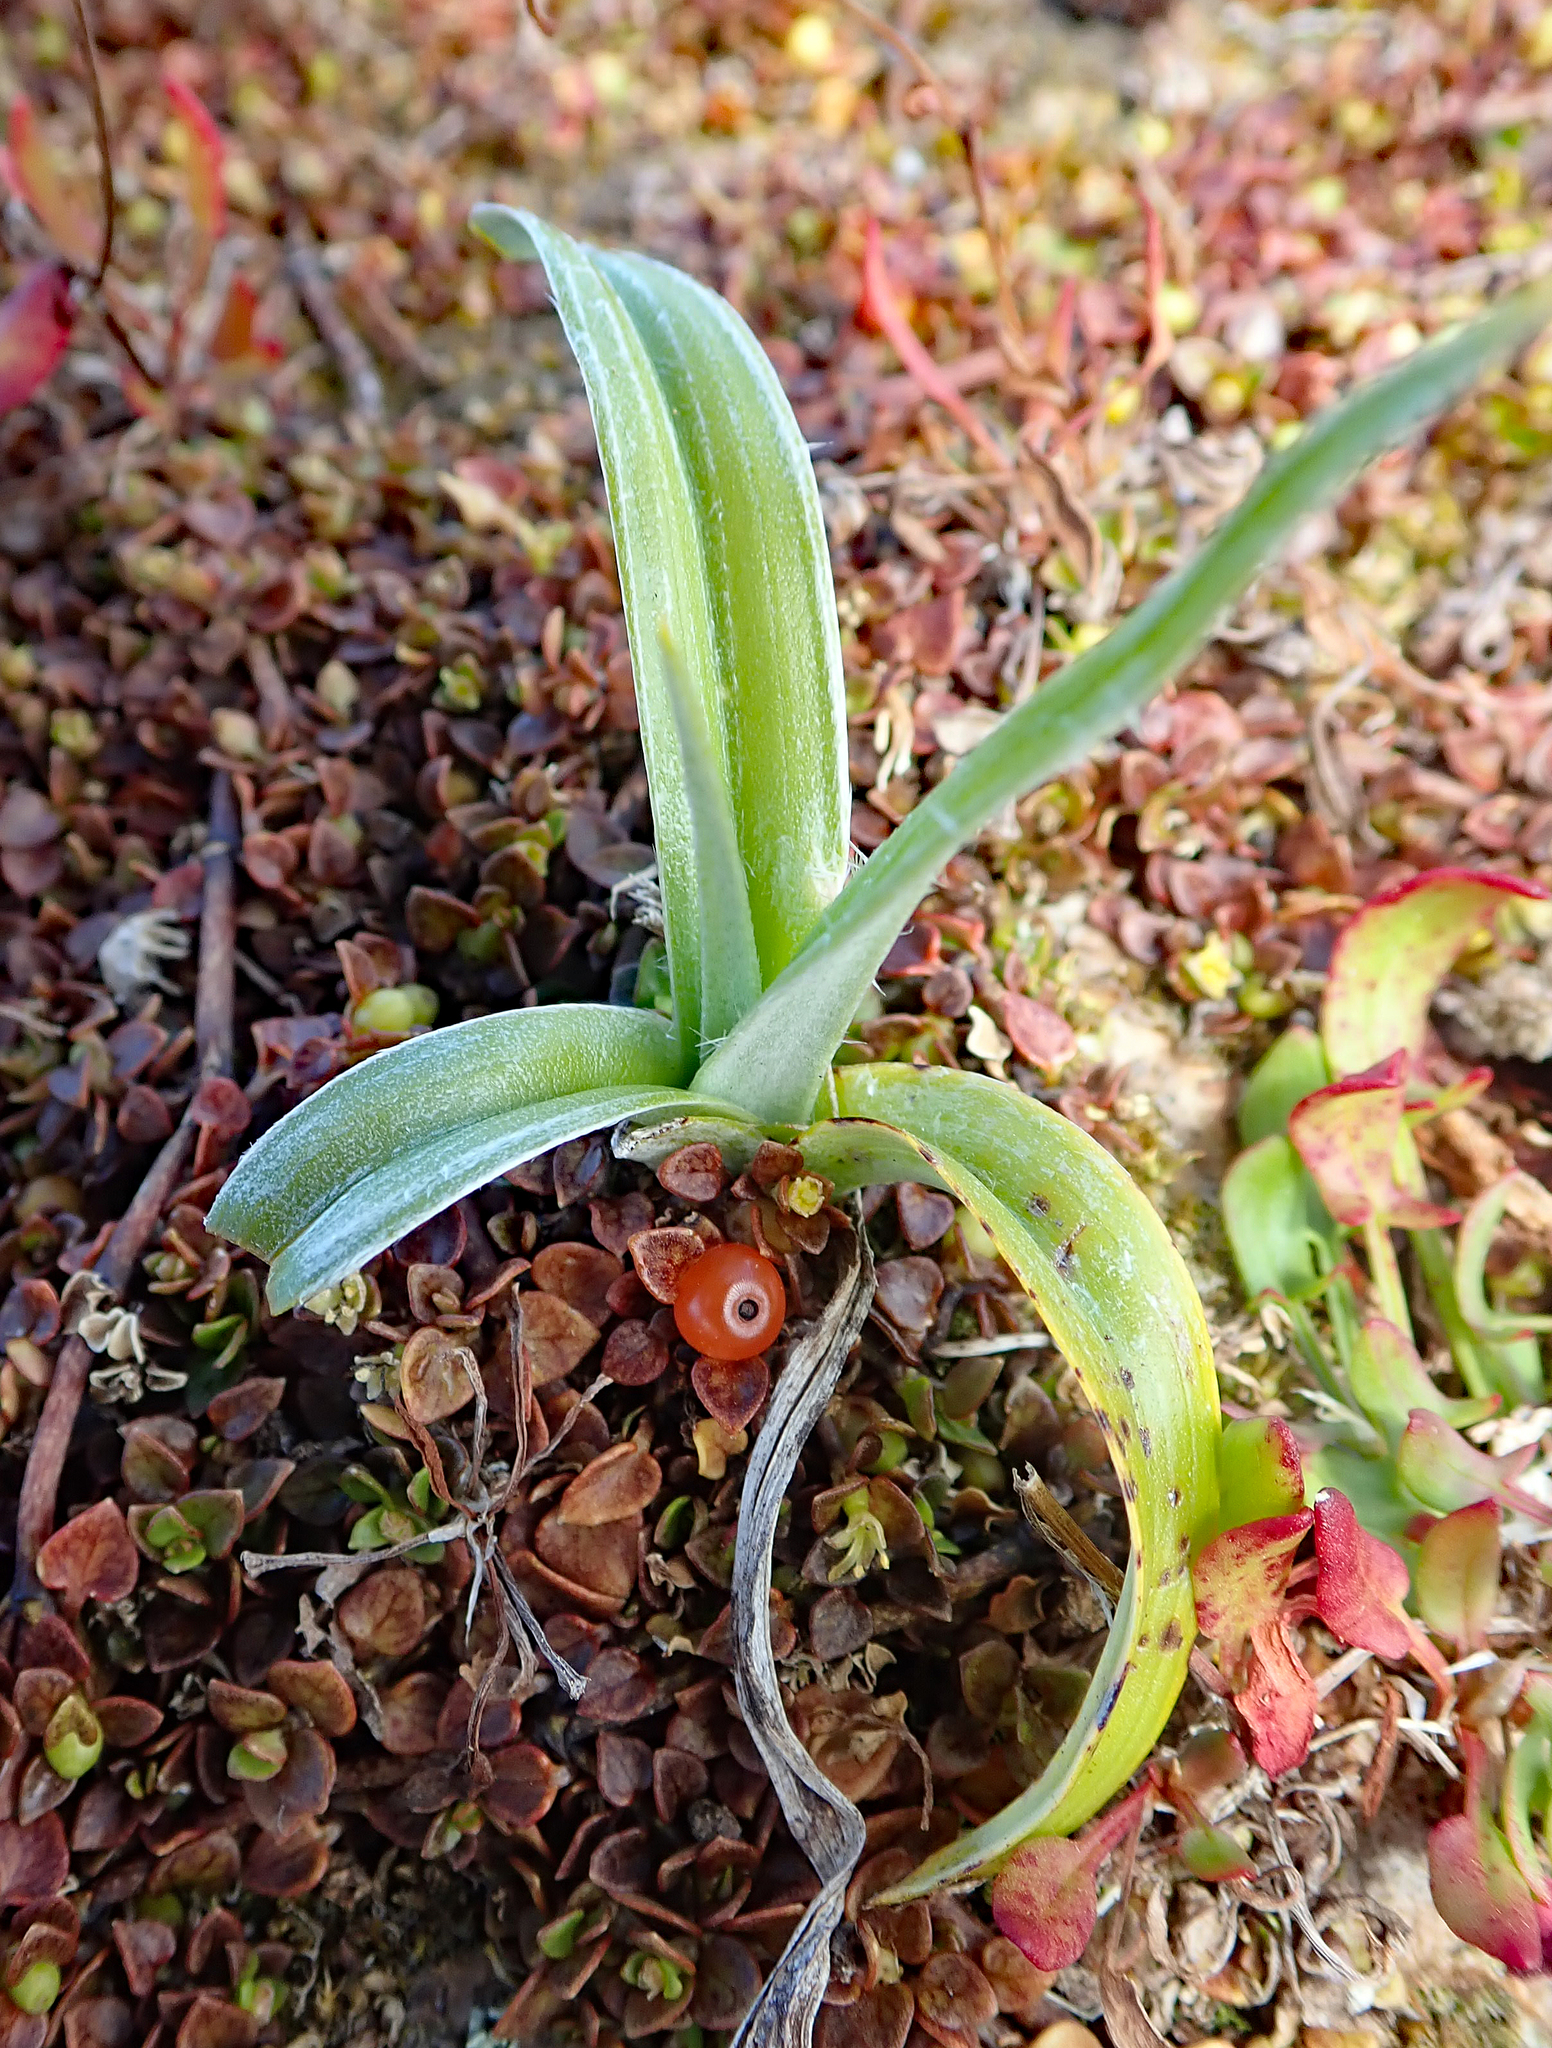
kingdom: Plantae
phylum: Tracheophyta
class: Liliopsida
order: Asparagales
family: Asteliaceae
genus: Astelia
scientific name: Astelia chathamica
